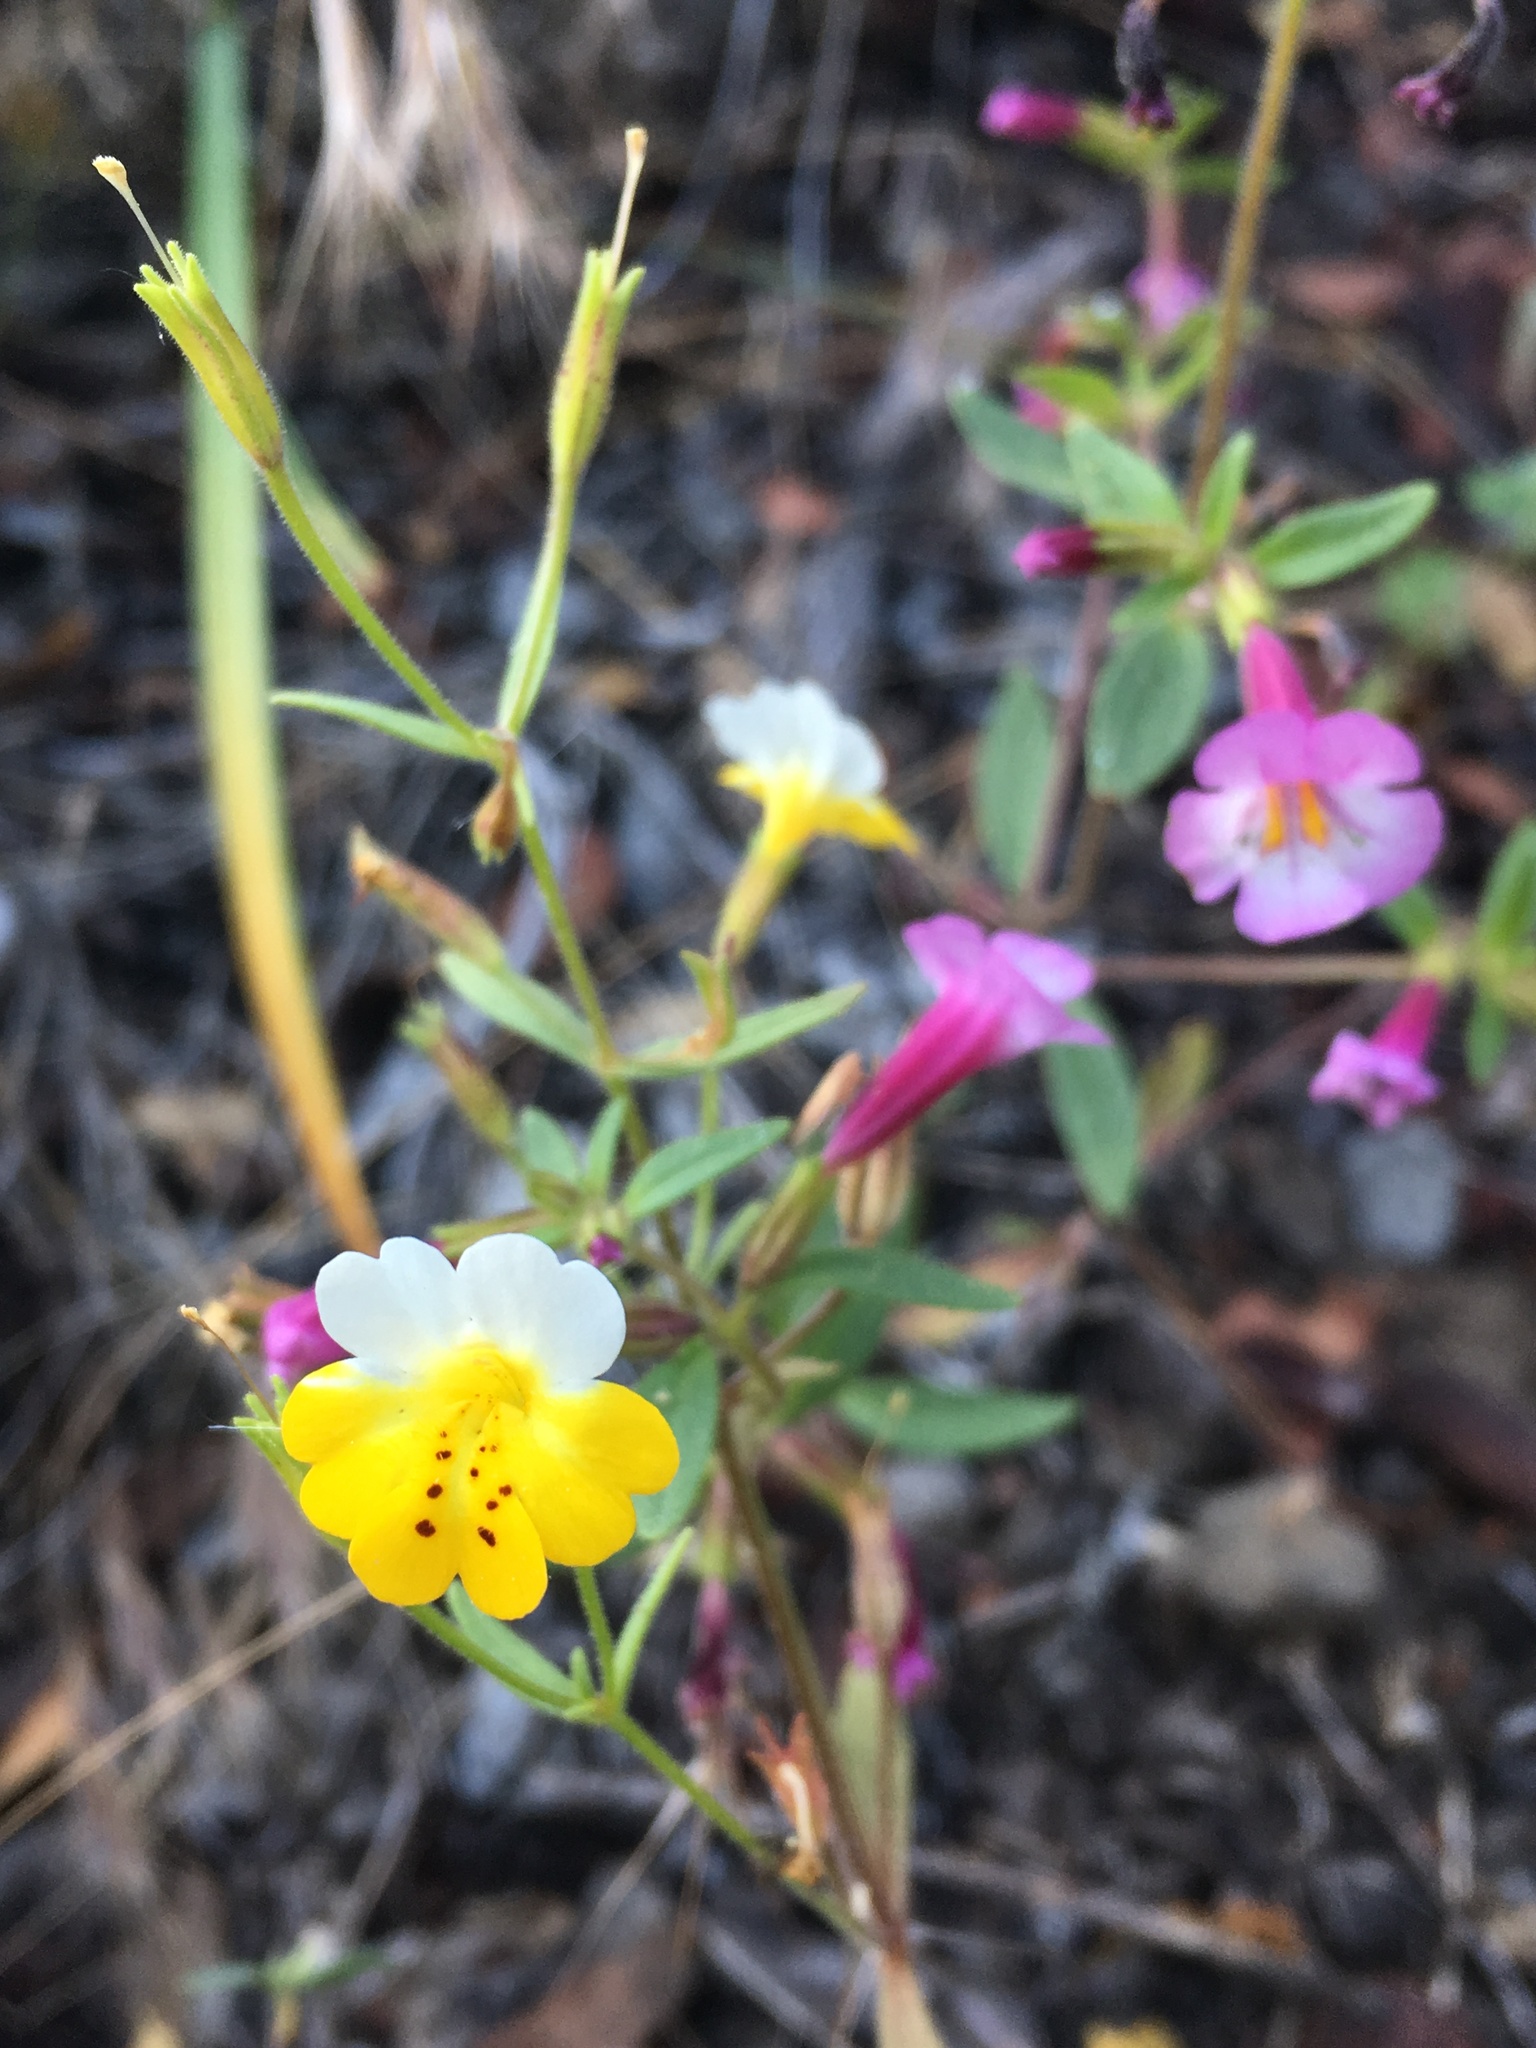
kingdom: Plantae
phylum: Tracheophyta
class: Magnoliopsida
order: Lamiales
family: Phrymaceae
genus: Erythranthe
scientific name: Erythranthe bicolor
